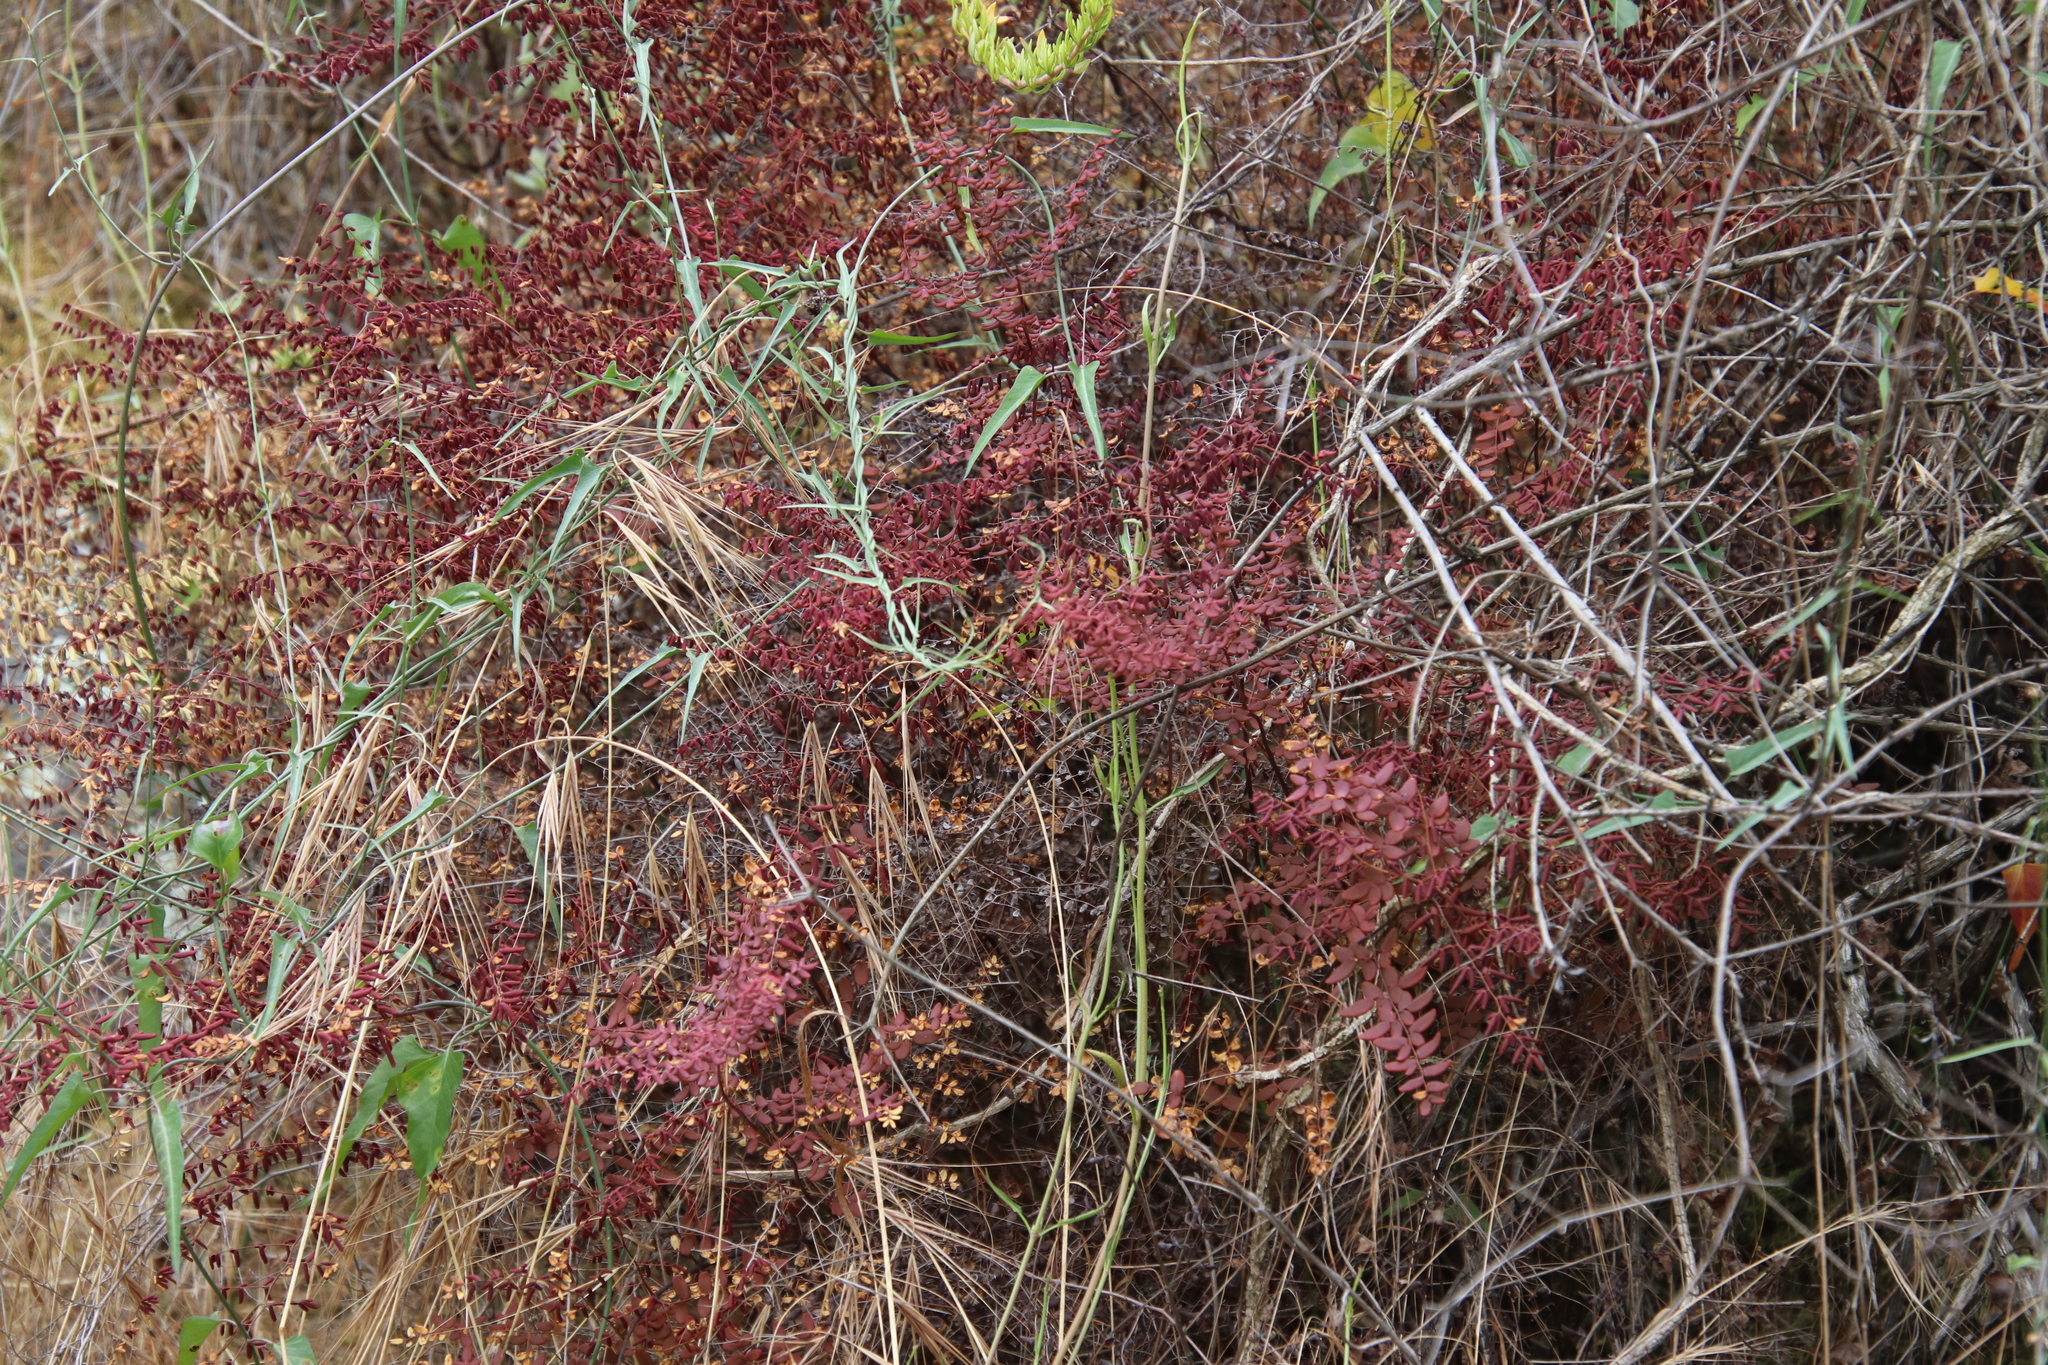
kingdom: Plantae
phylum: Tracheophyta
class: Polypodiopsida
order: Polypodiales
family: Pteridaceae
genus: Pellaea
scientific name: Pellaea andromedifolia
